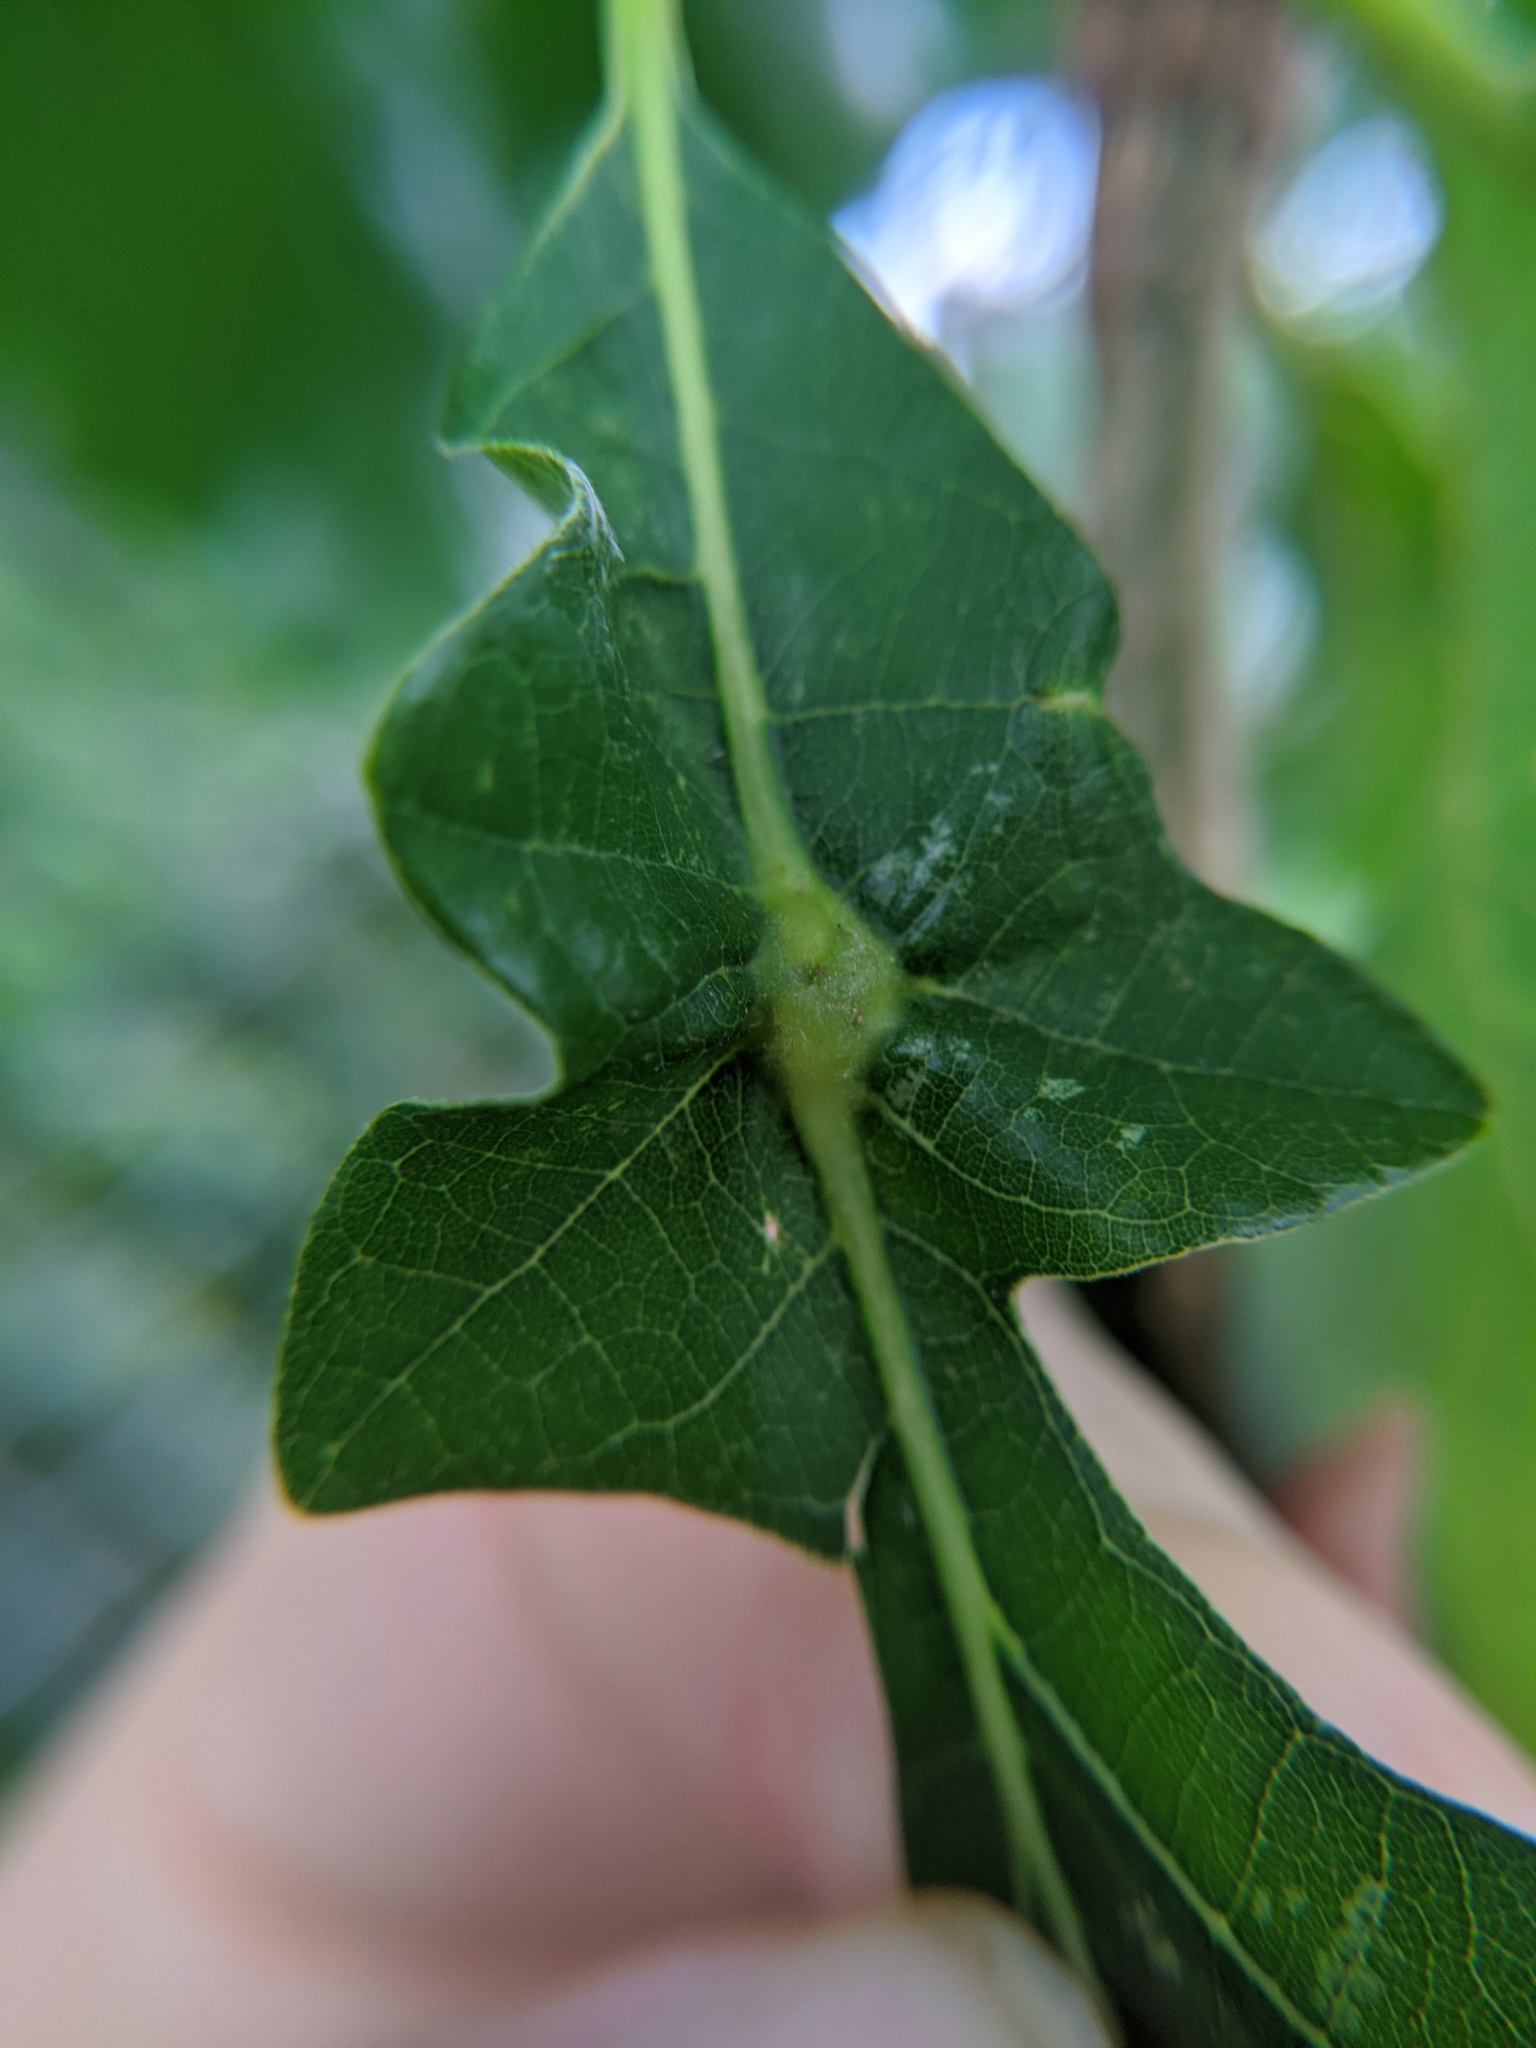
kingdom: Animalia
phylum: Arthropoda
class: Insecta
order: Hymenoptera
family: Cynipidae
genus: Bassettia
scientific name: Bassettia flavipes
